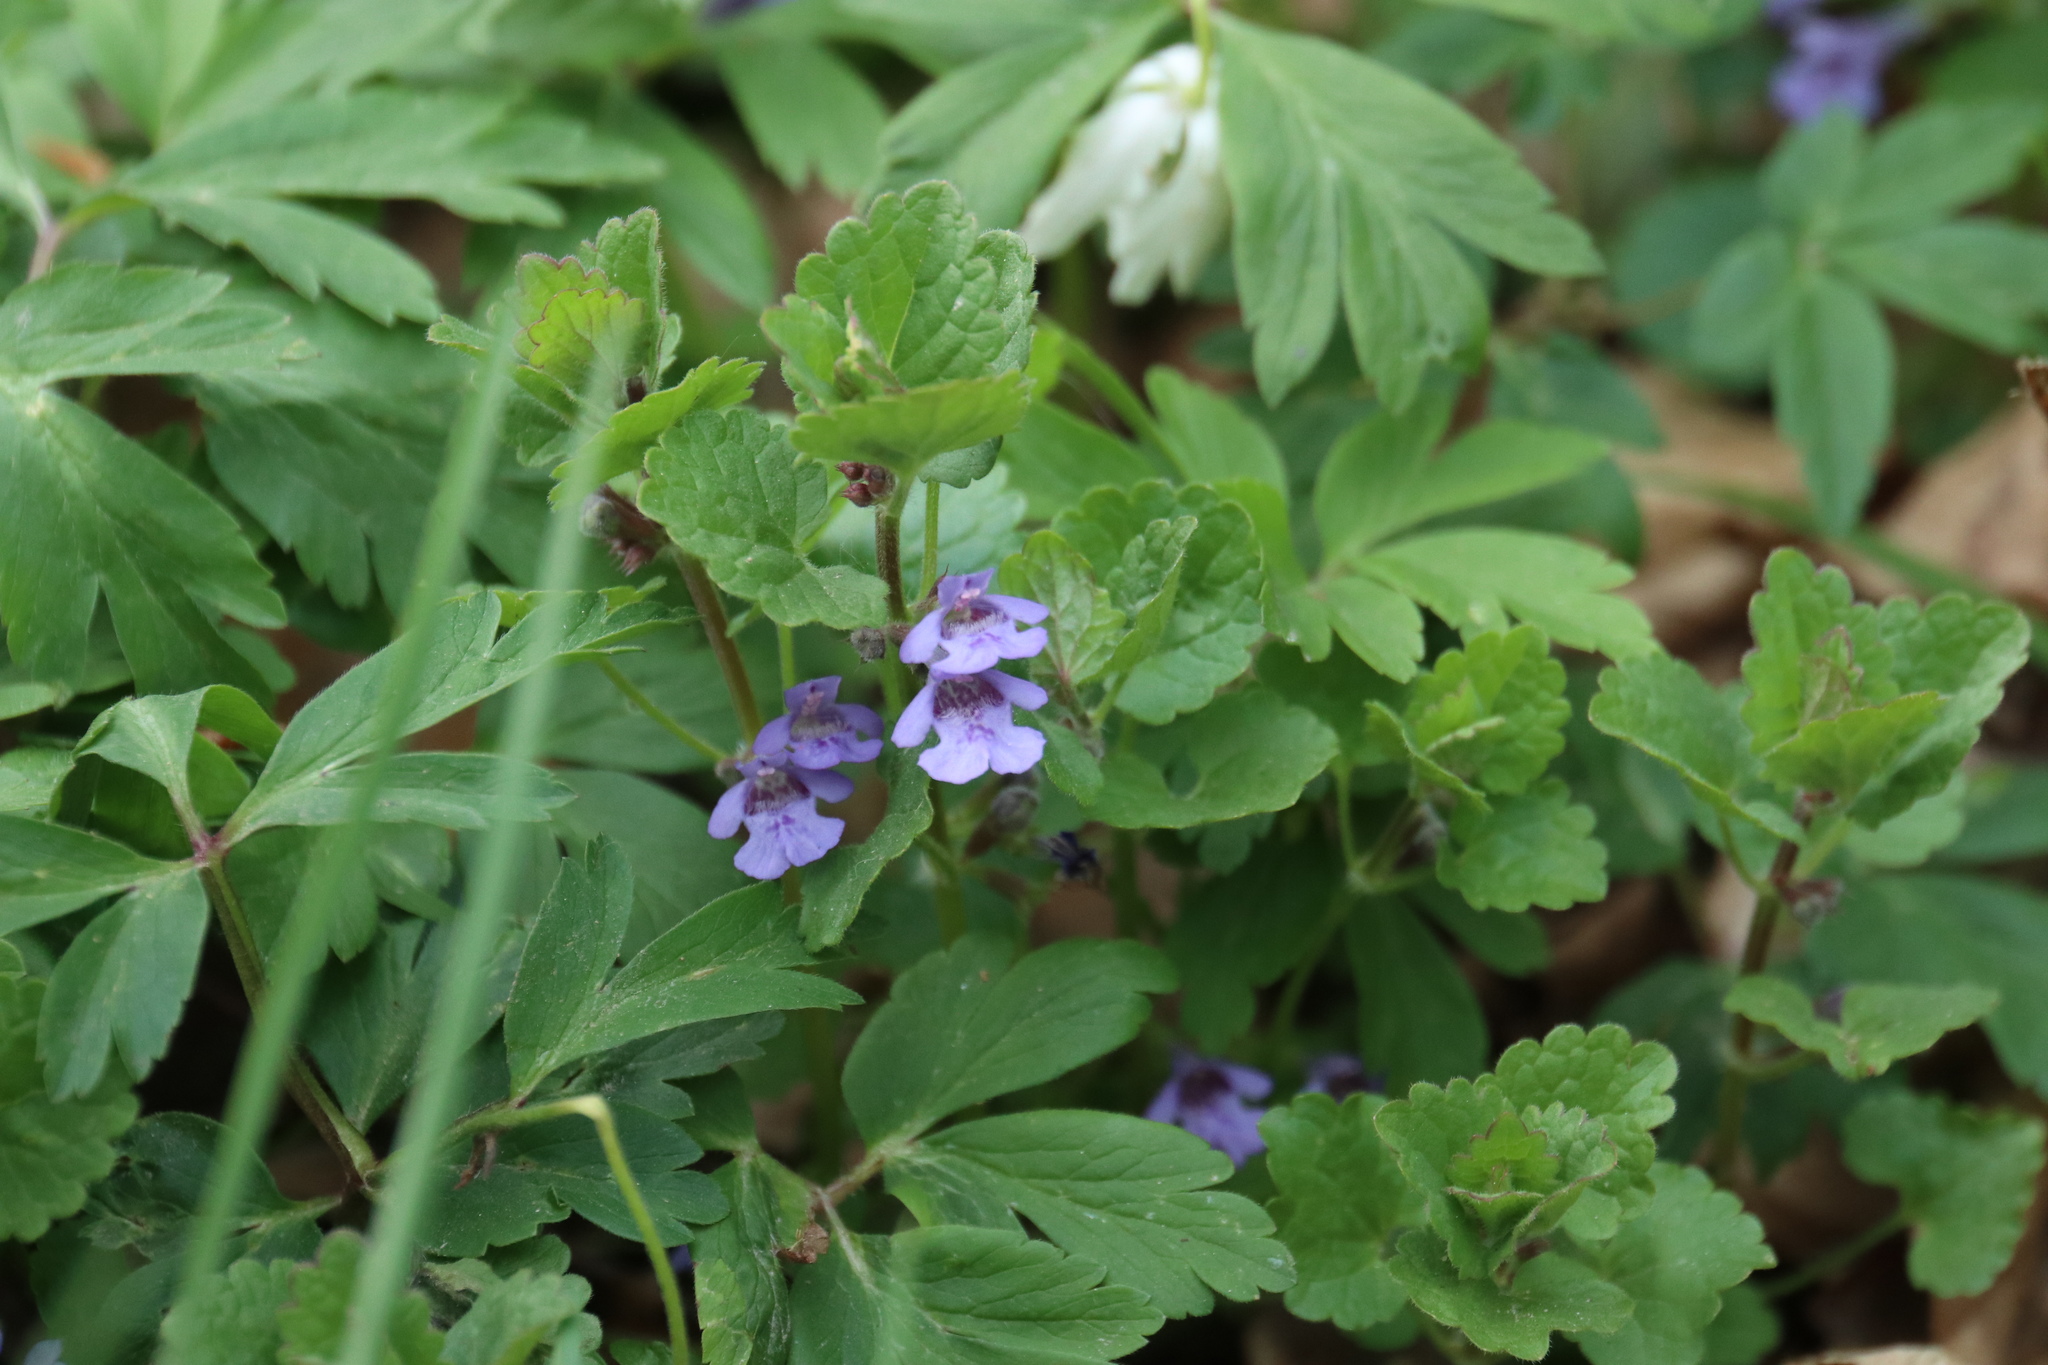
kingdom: Plantae
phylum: Tracheophyta
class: Magnoliopsida
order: Lamiales
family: Lamiaceae
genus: Glechoma
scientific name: Glechoma hederacea
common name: Ground ivy
